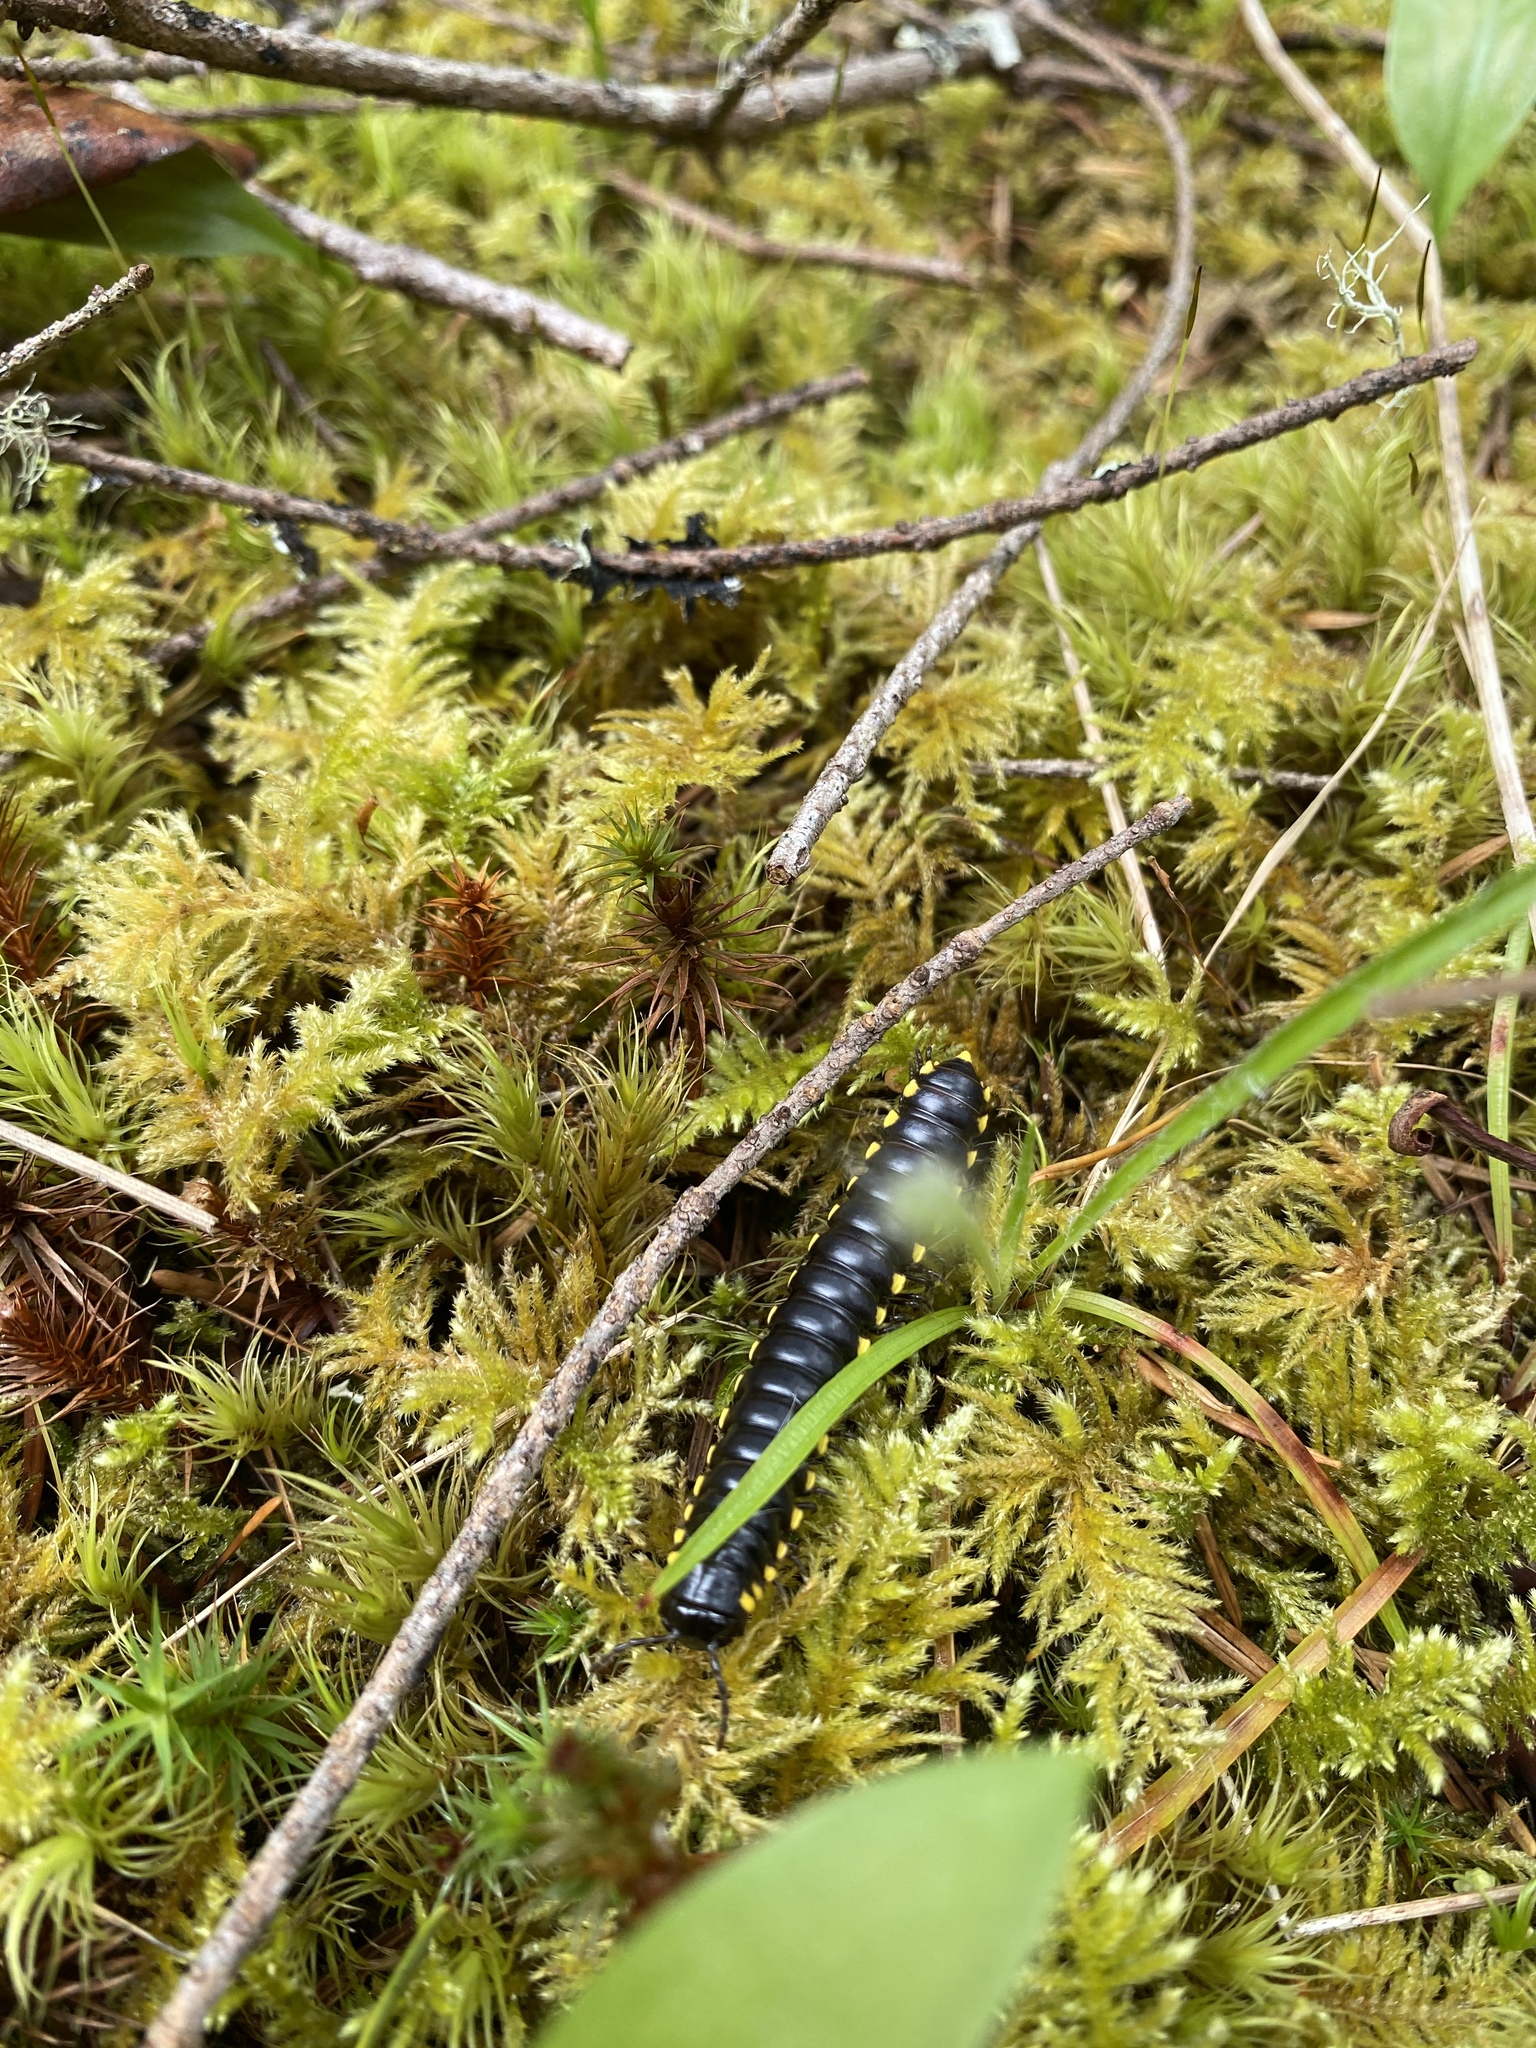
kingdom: Animalia
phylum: Arthropoda
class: Diplopoda
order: Polydesmida
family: Xystodesmidae
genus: Harpaphe
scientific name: Harpaphe haydeniana
